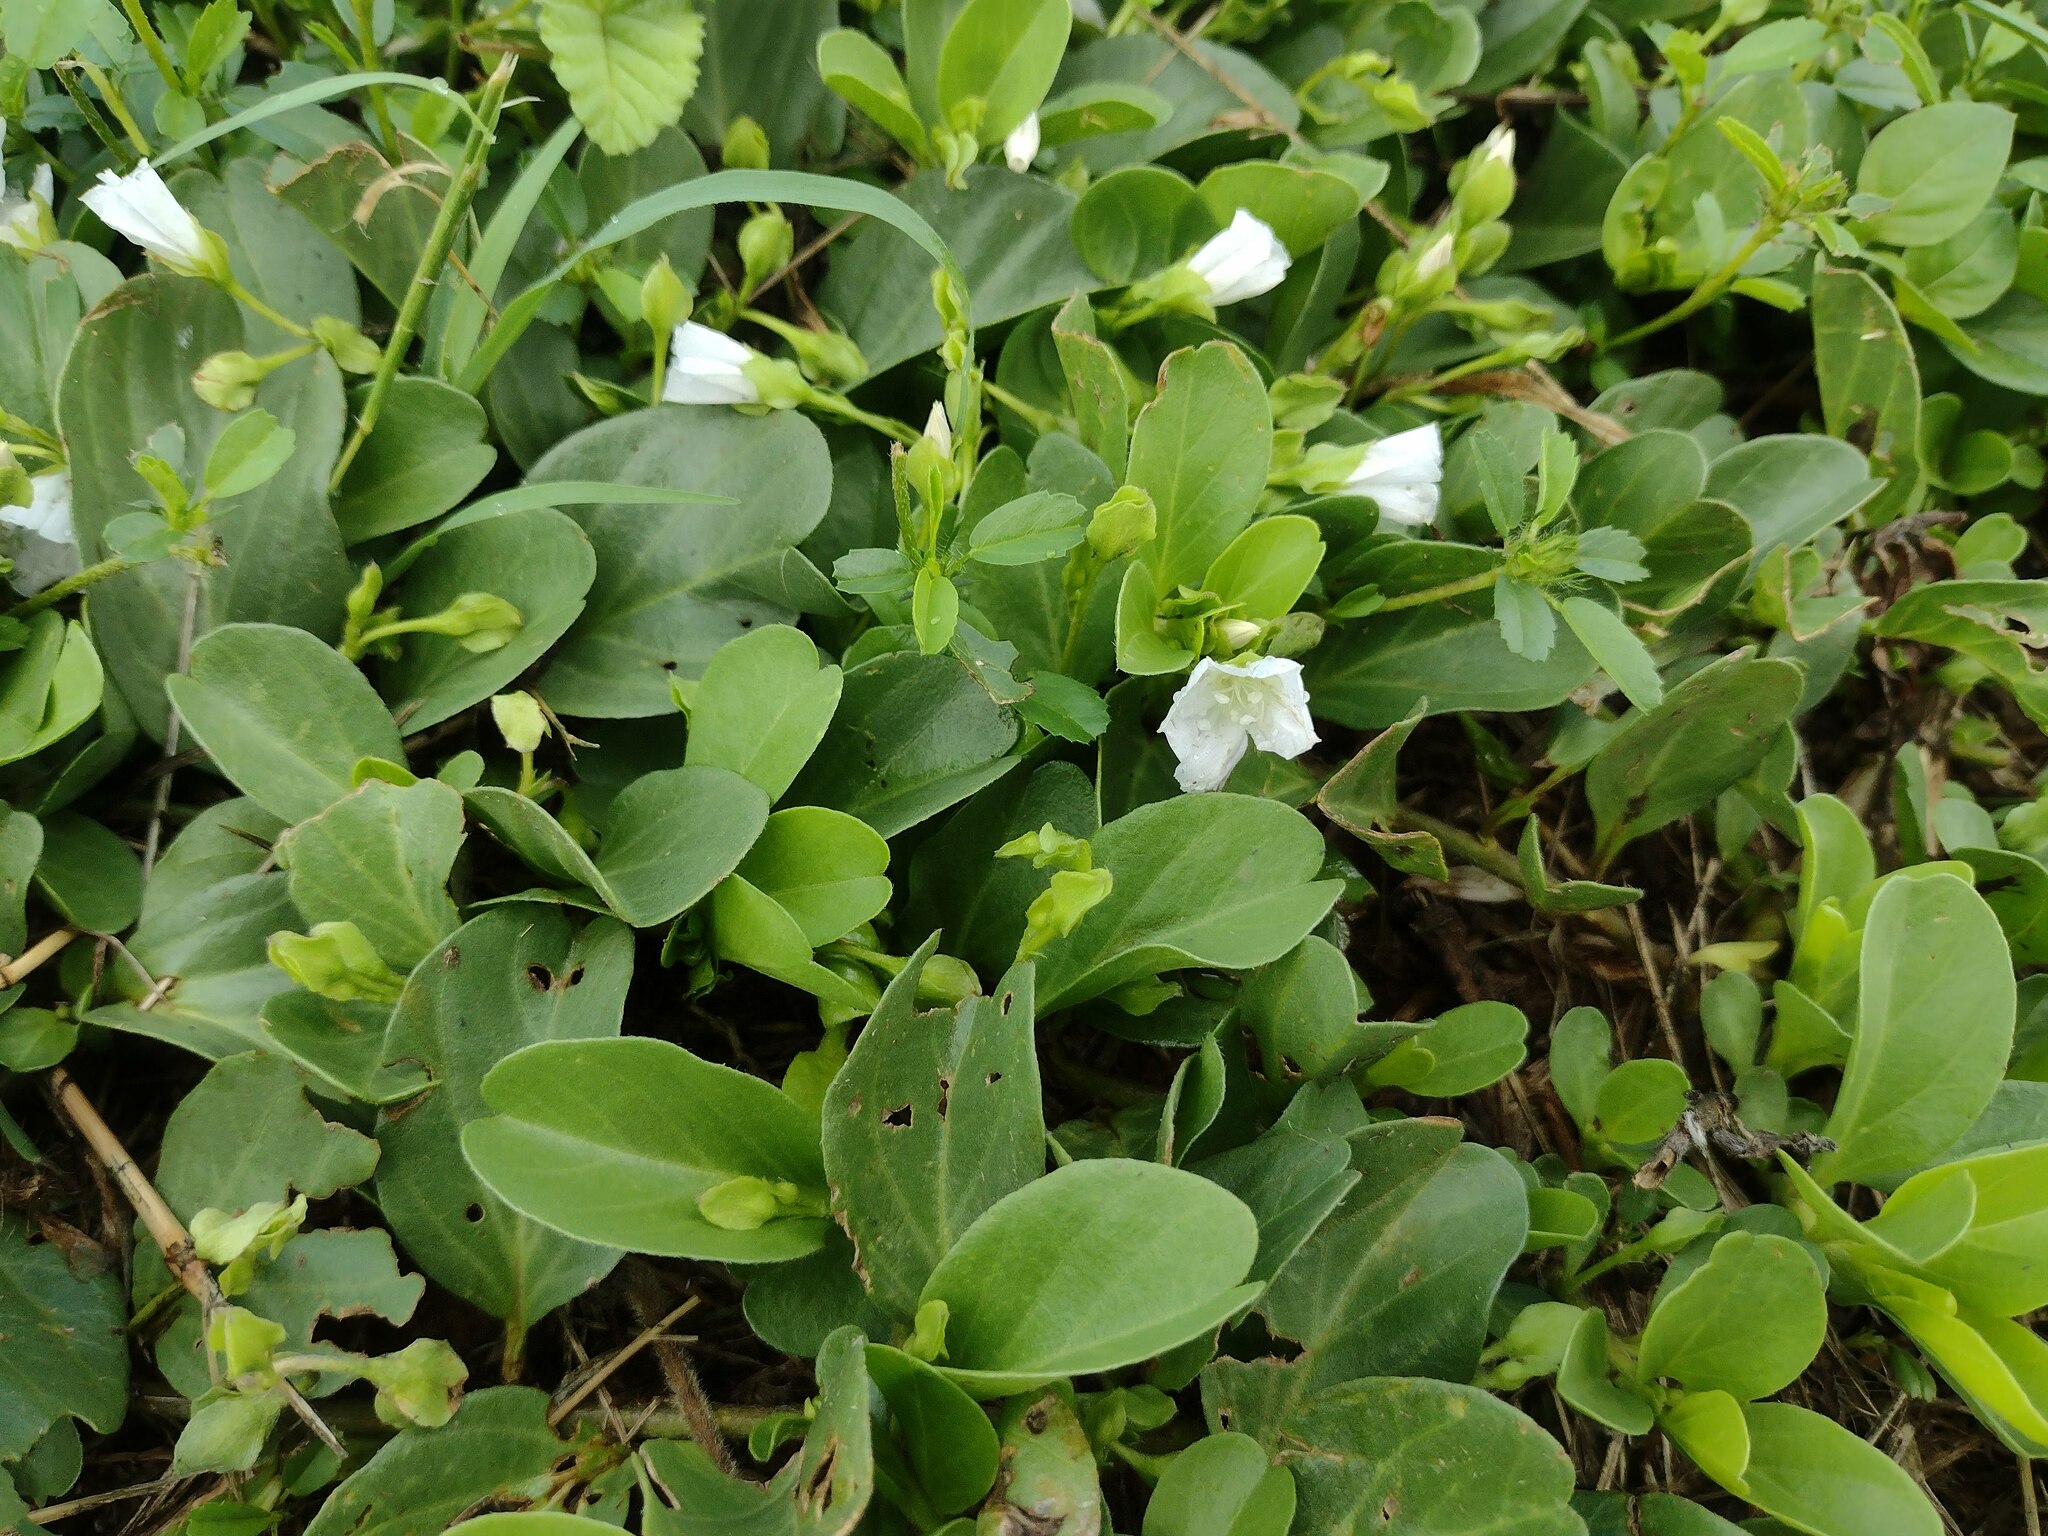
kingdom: Plantae
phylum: Tracheophyta
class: Magnoliopsida
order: Solanales
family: Convolvulaceae
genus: Jacquemontia
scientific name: Jacquemontia sandwicensis
